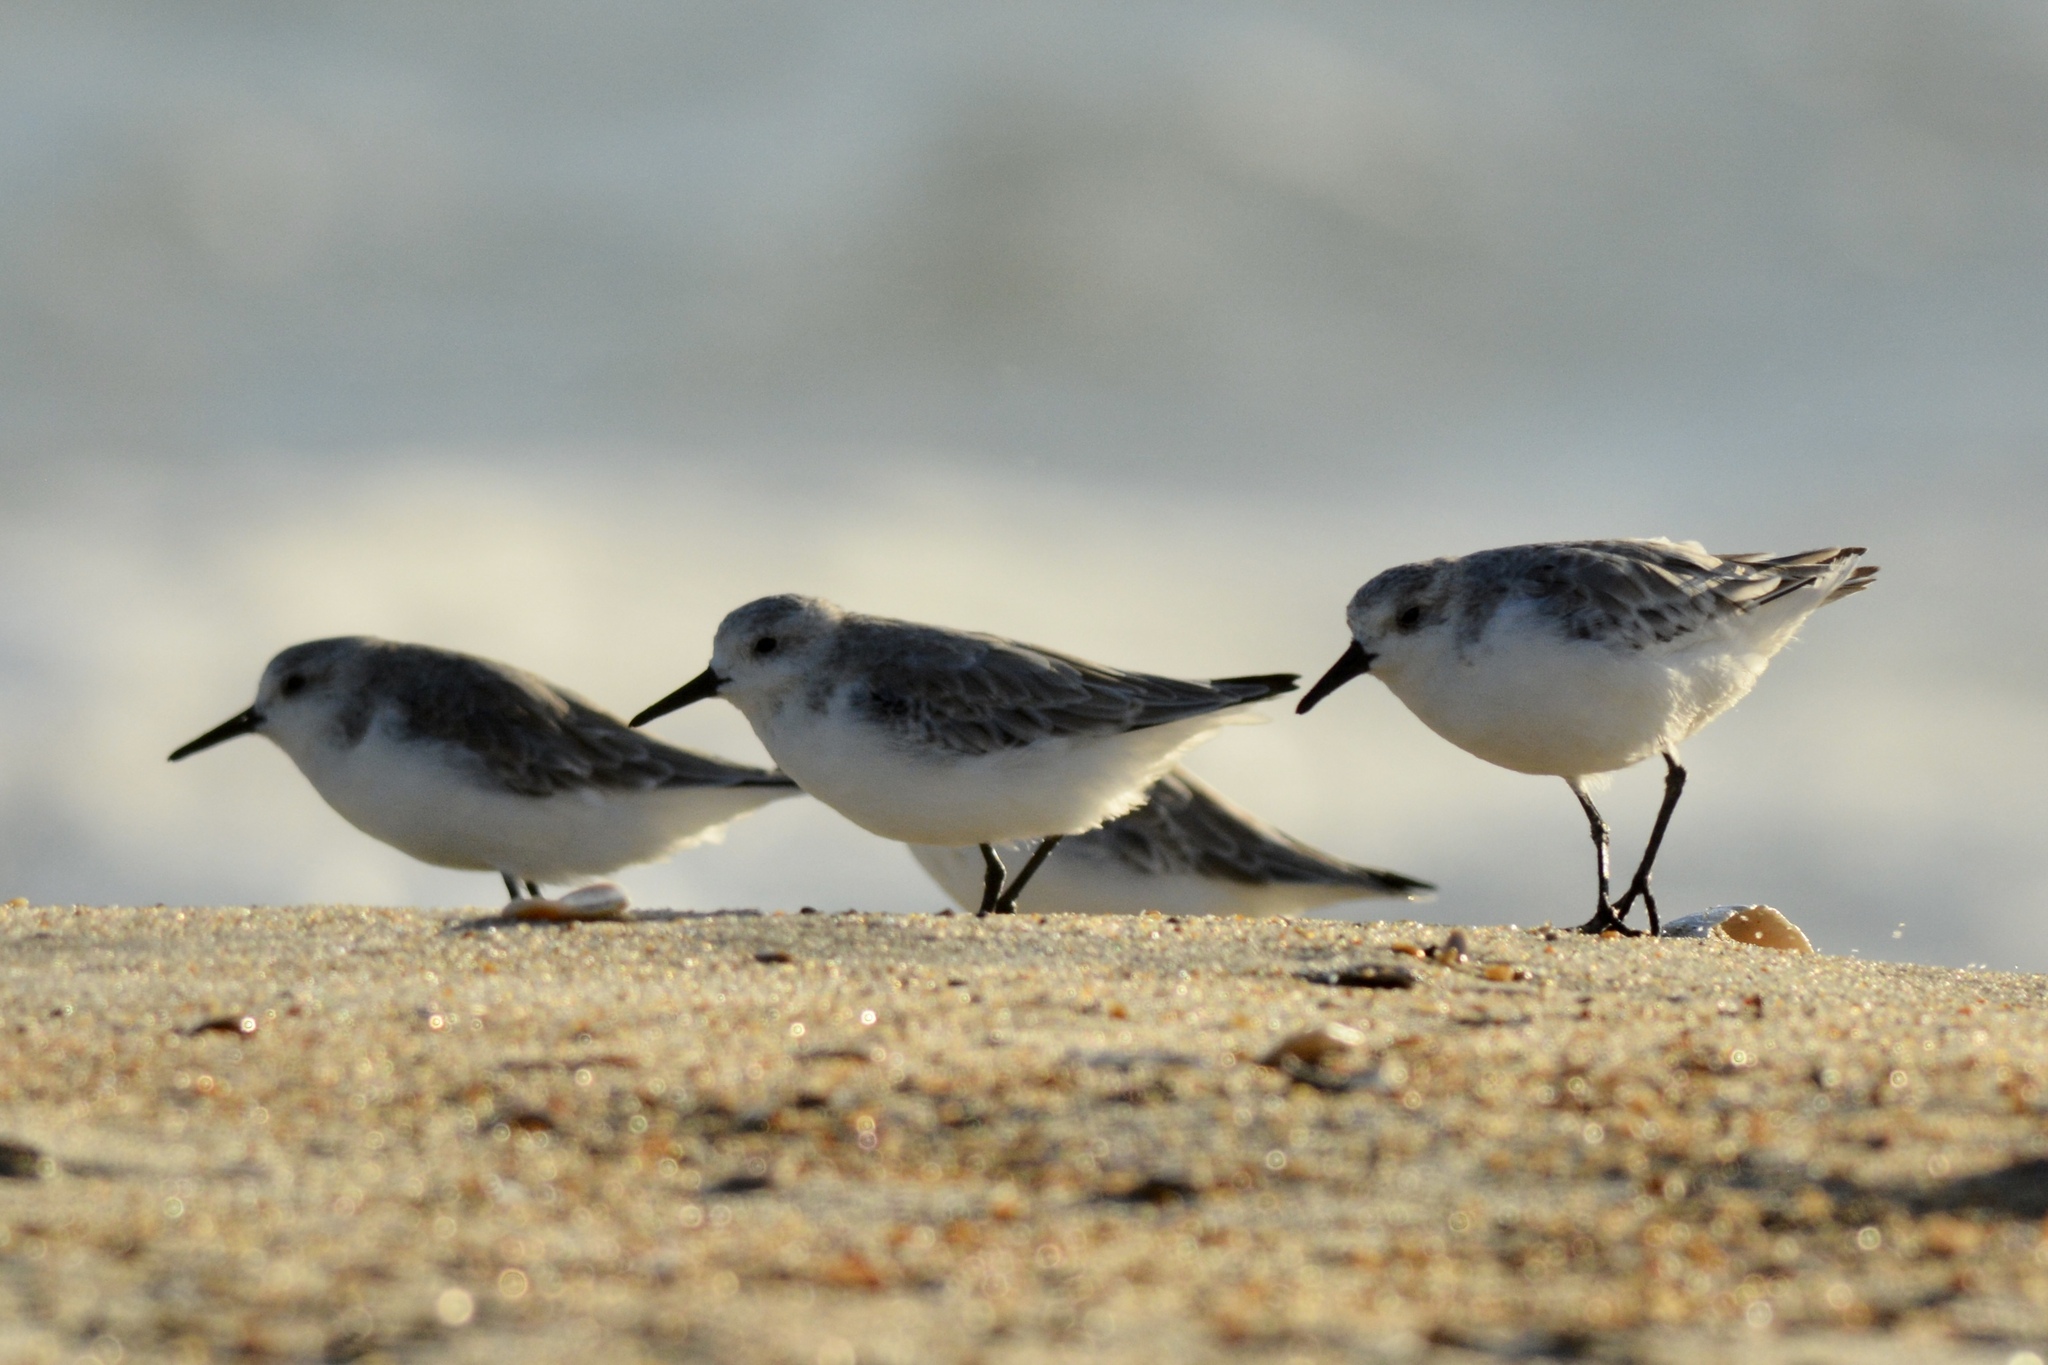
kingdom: Animalia
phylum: Chordata
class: Aves
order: Charadriiformes
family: Scolopacidae
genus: Calidris
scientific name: Calidris alba
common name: Sanderling
